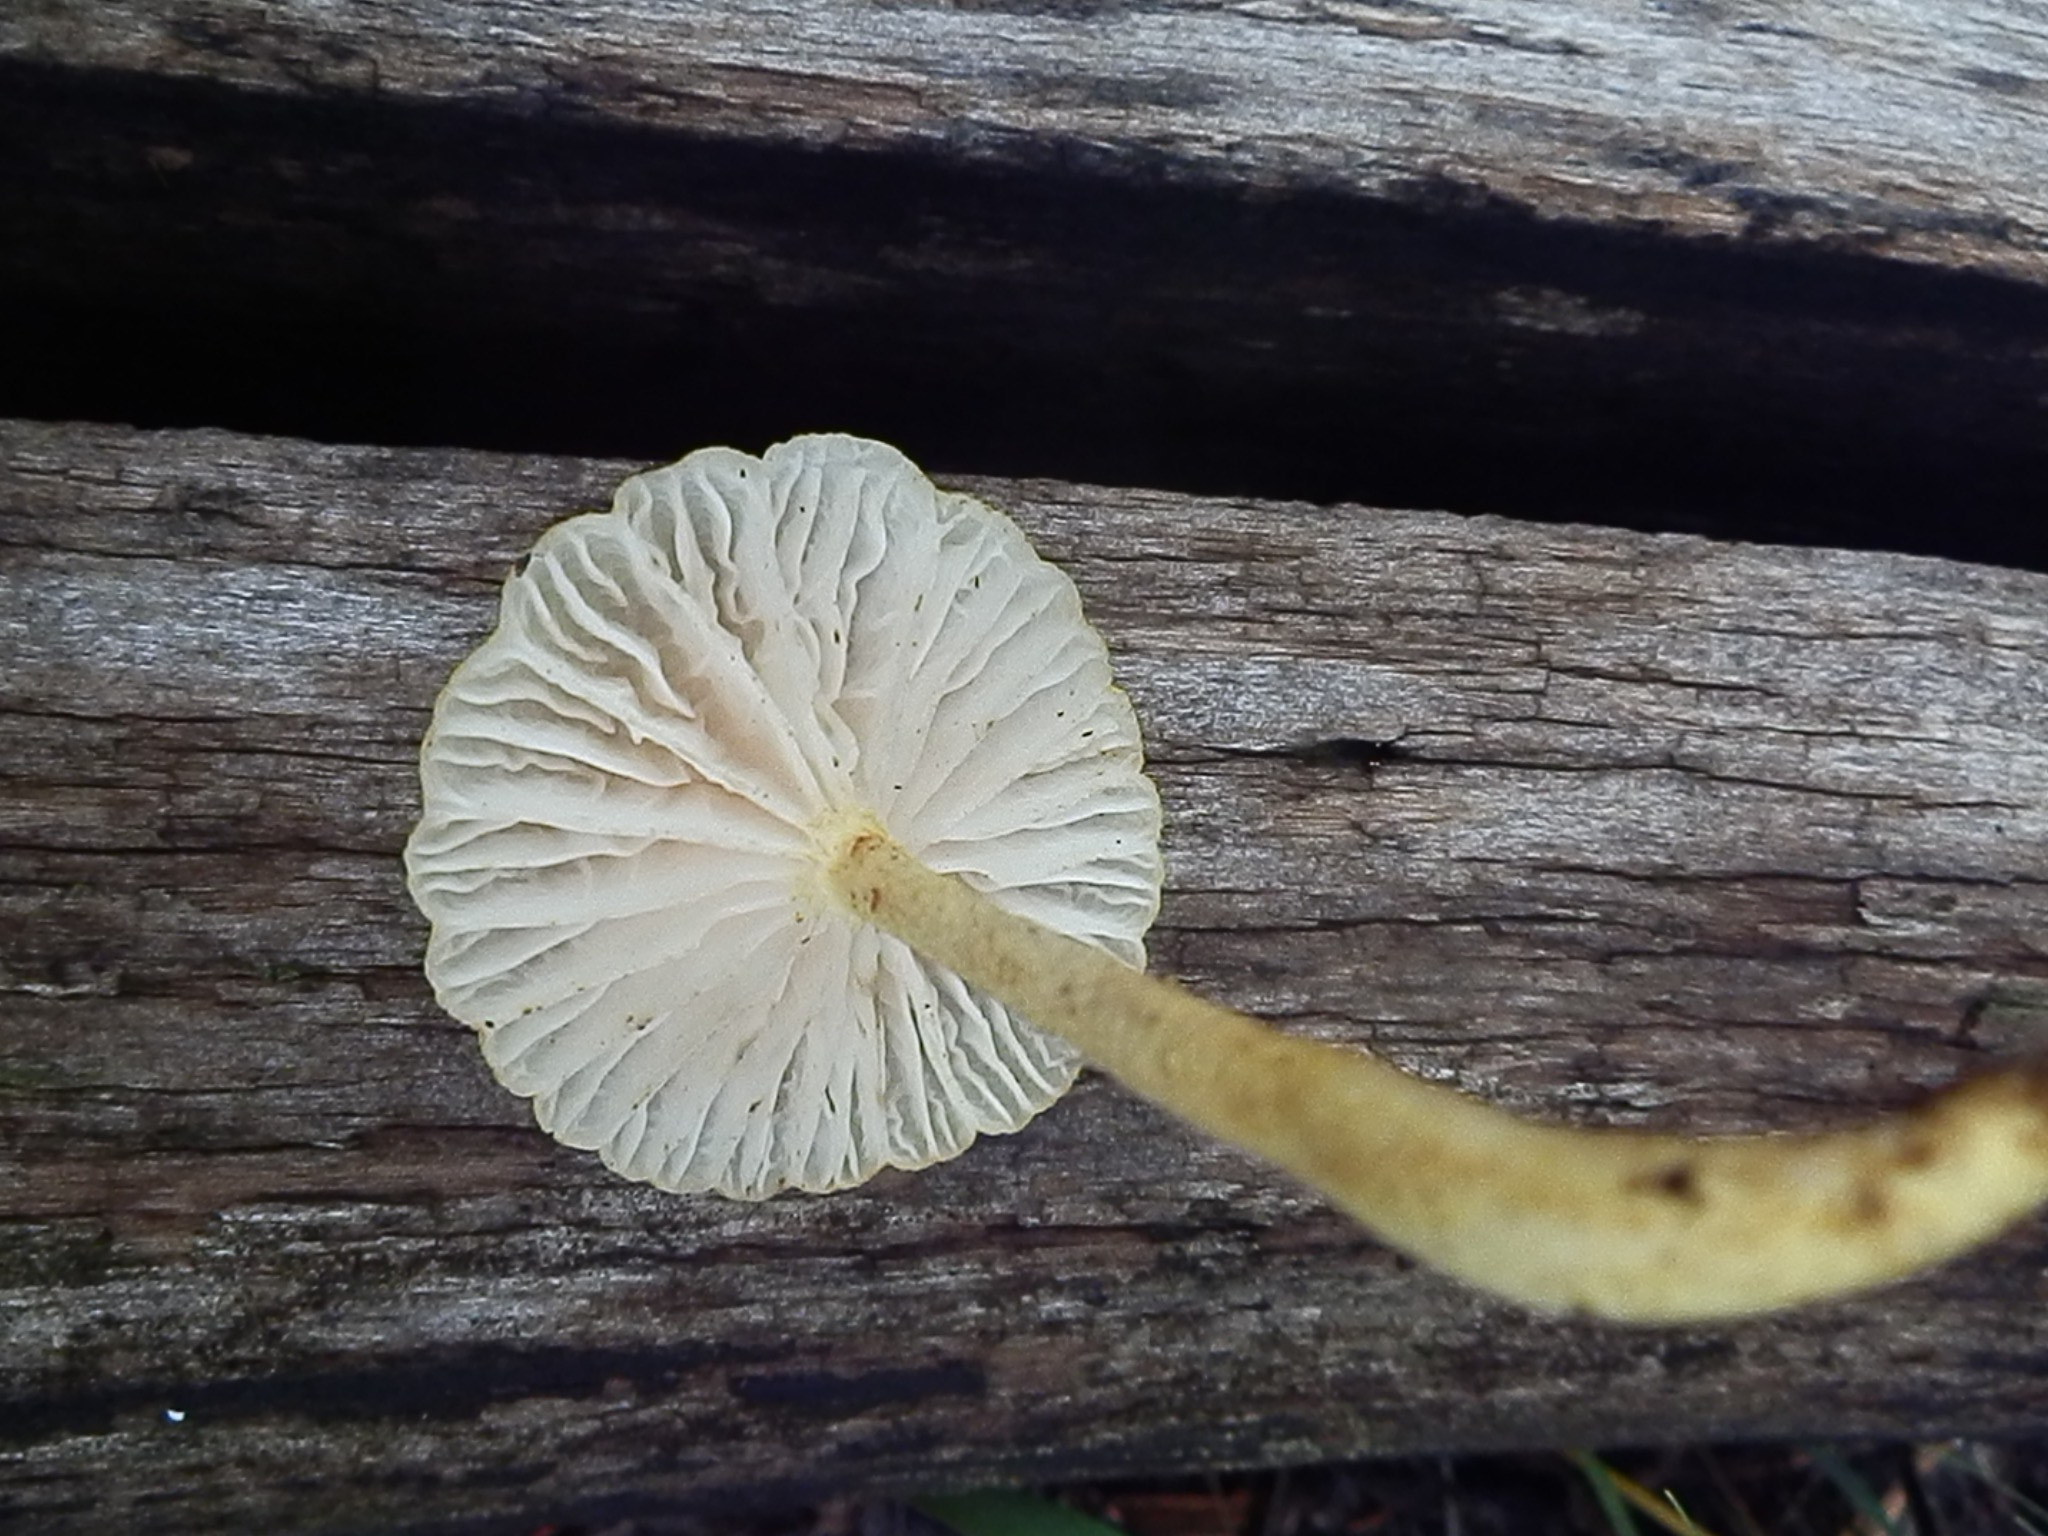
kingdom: Fungi
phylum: Basidiomycota
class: Agaricomycetes
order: Agaricales
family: Physalacriaceae
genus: Cyptotrama
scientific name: Cyptotrama chrysopepla
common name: Golden coincap
